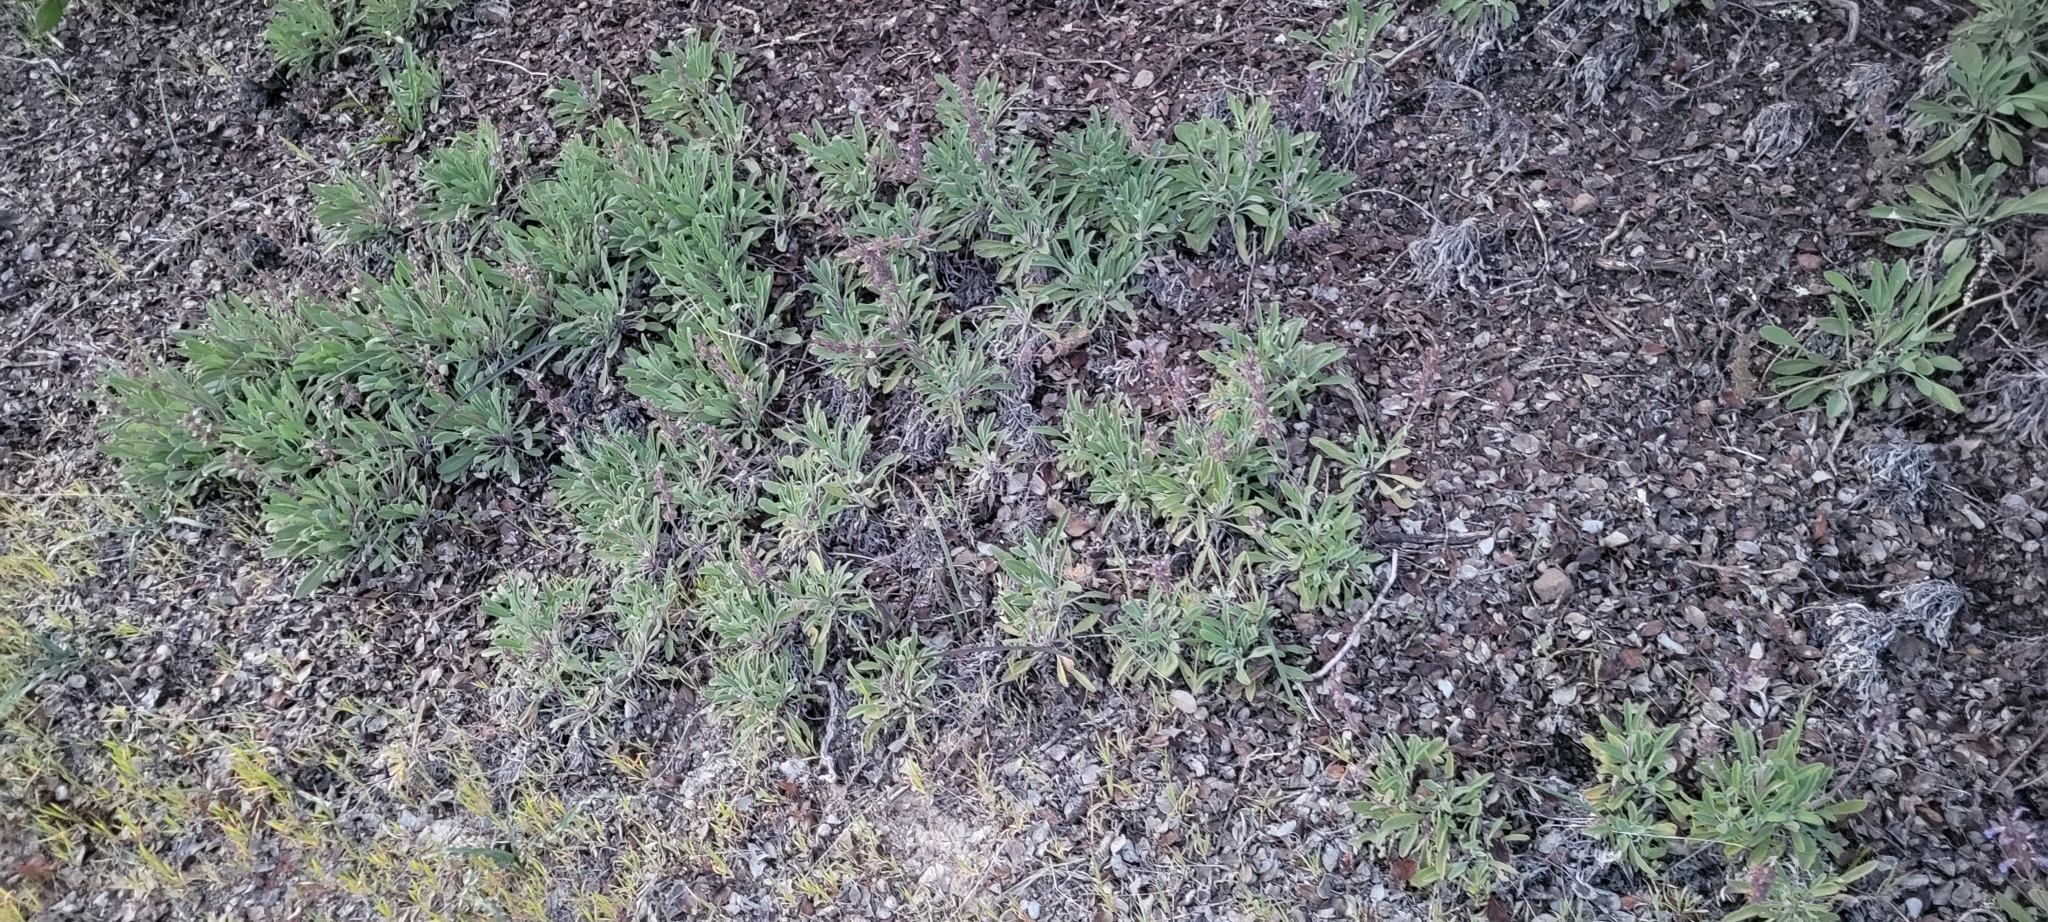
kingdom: Plantae
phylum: Tracheophyta
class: Magnoliopsida
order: Lamiales
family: Lamiaceae
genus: Salvia
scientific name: Salvia sonomensis
